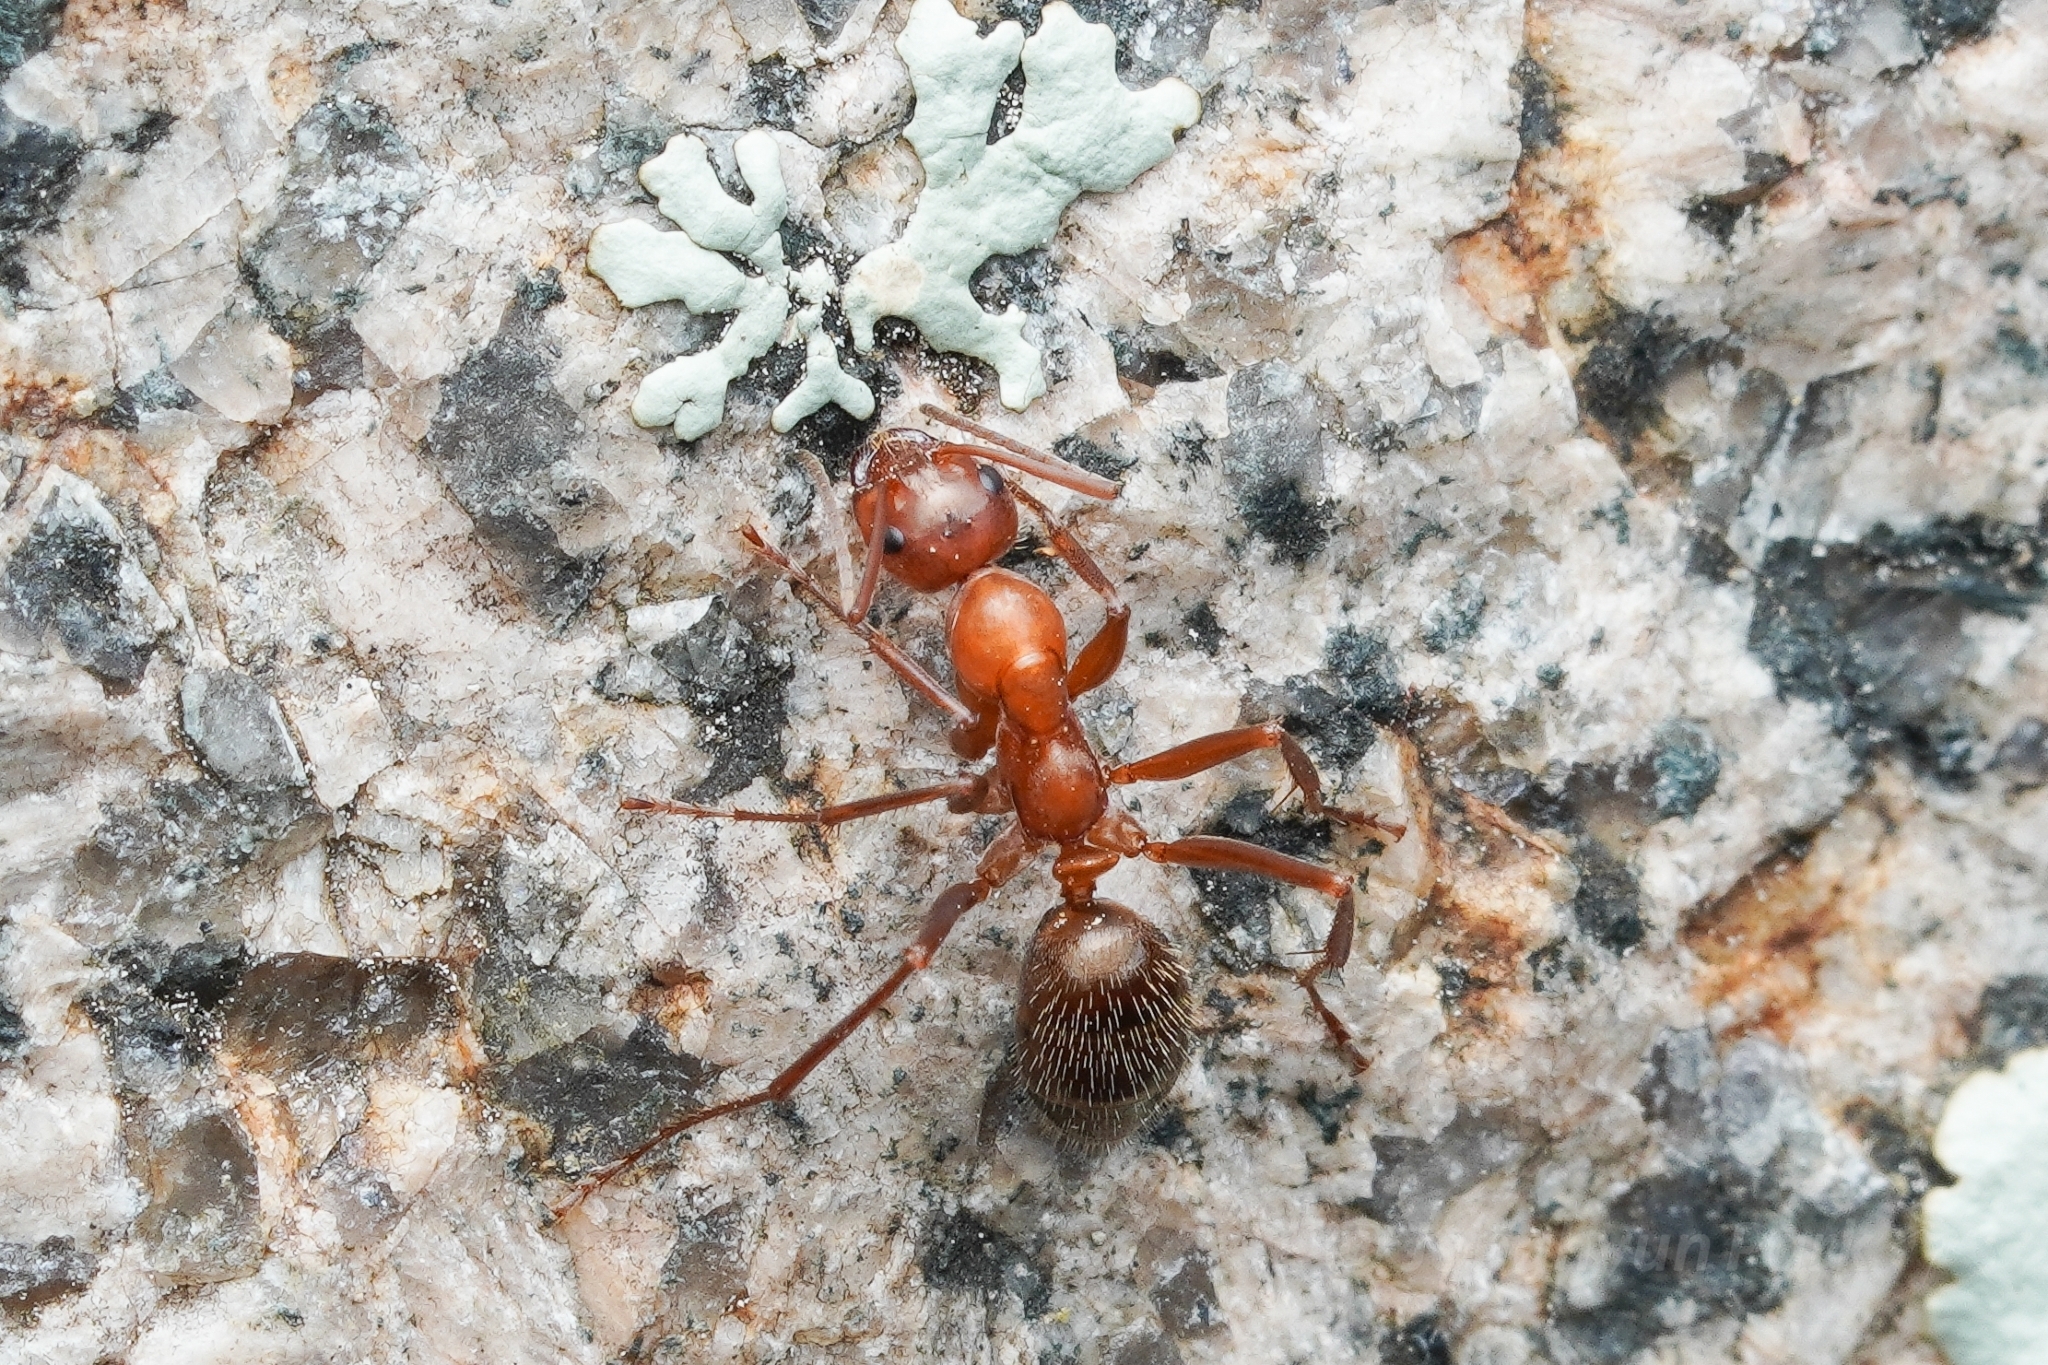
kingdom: Animalia
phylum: Arthropoda
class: Insecta
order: Hymenoptera
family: Formicidae
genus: Formica
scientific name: Formica dolosa
